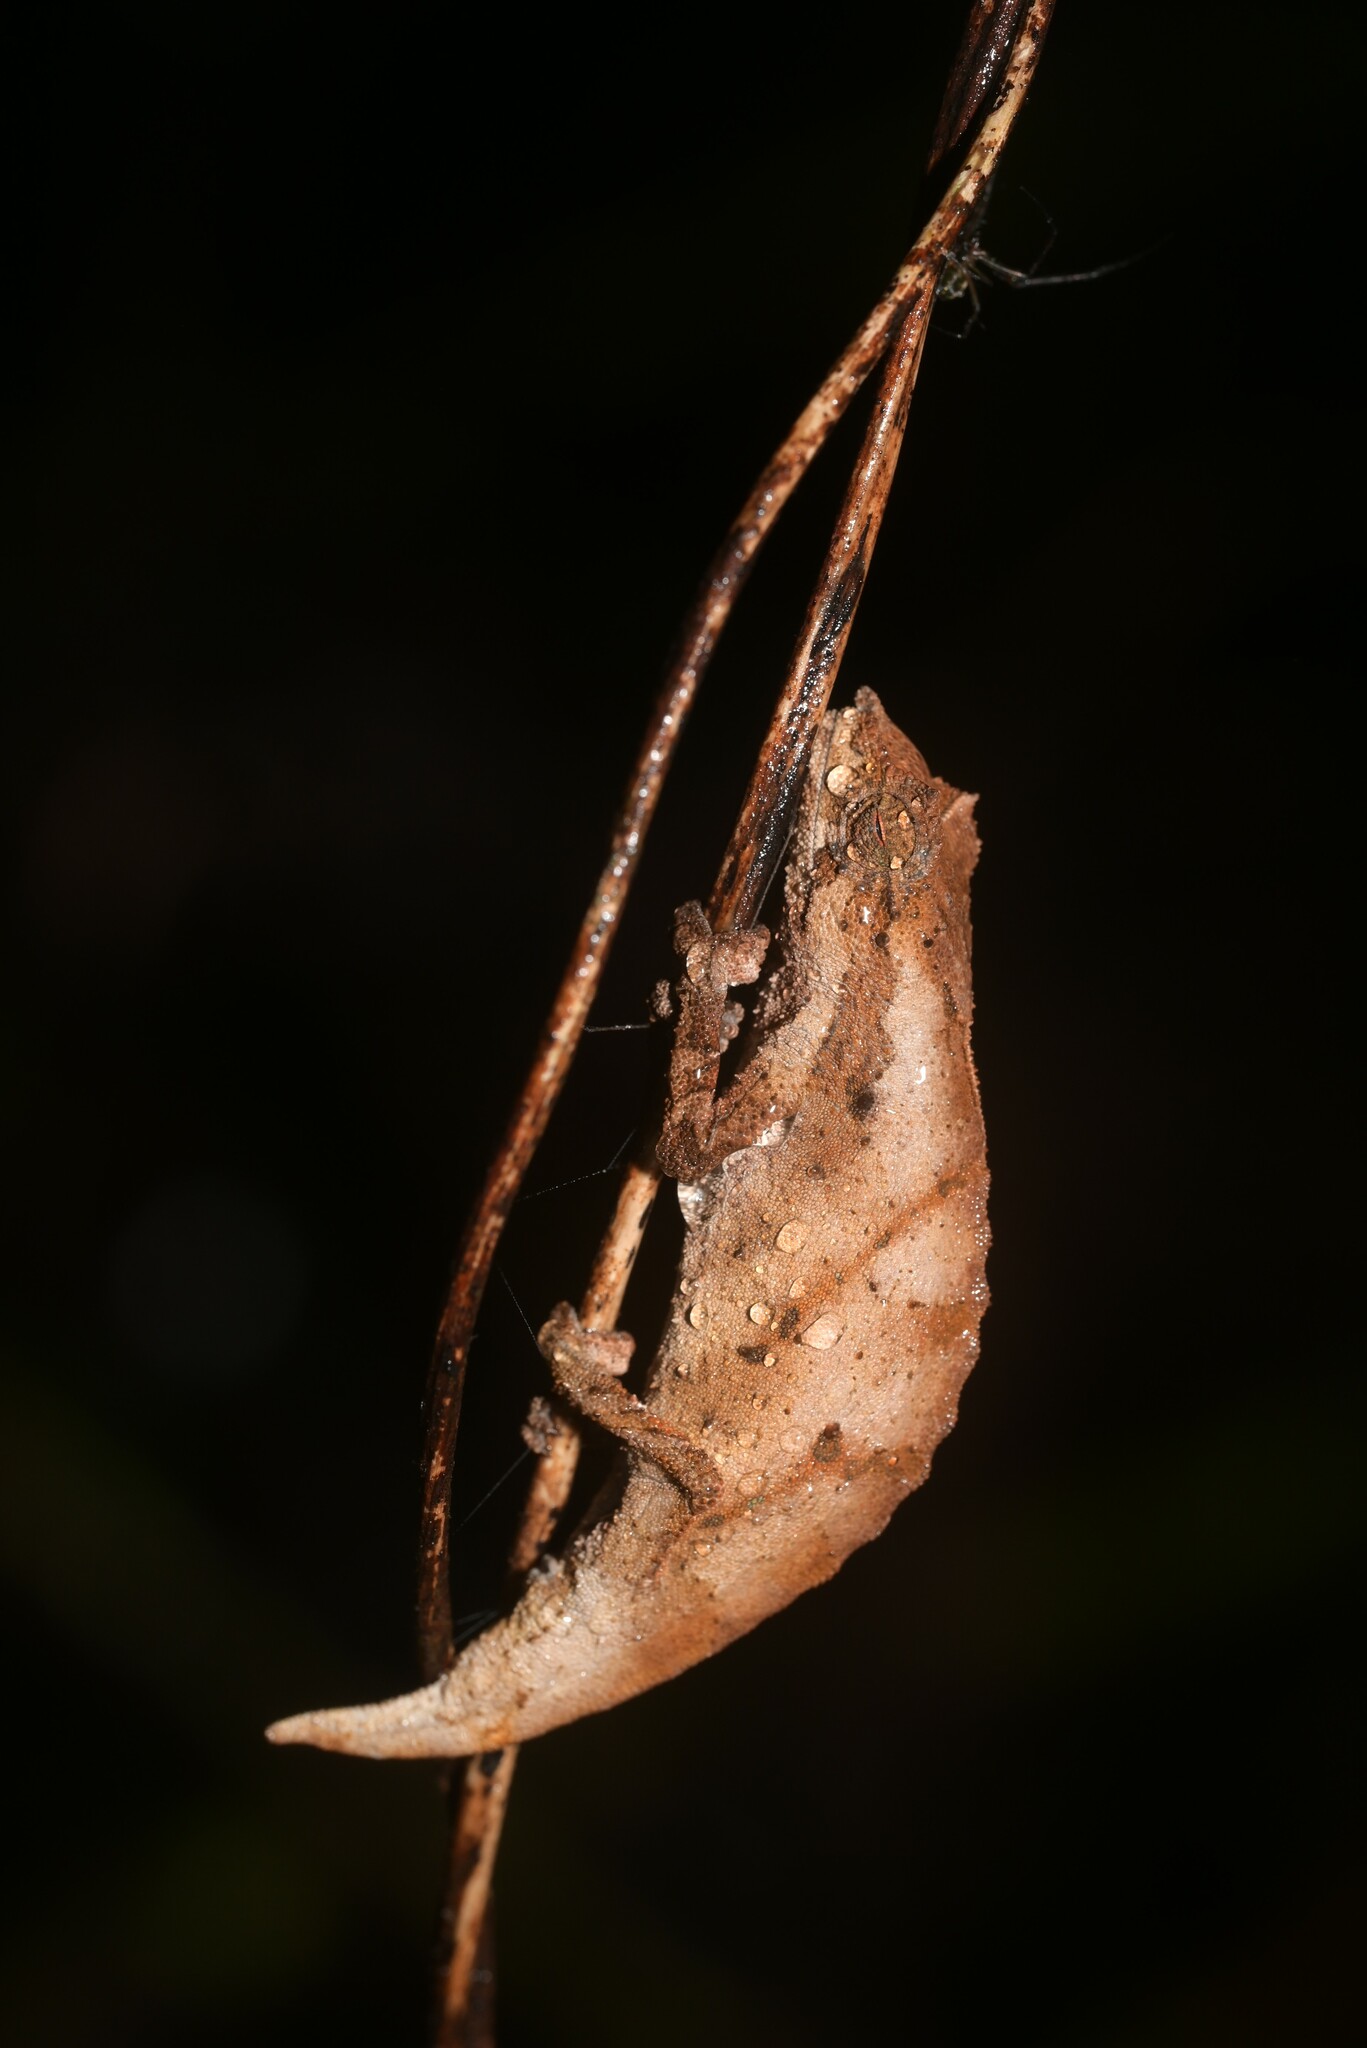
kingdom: Animalia
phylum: Chordata
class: Squamata
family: Chamaeleonidae
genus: Rhampholeon
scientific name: Rhampholeon nchisiensis
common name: South african stumptail chameleon
